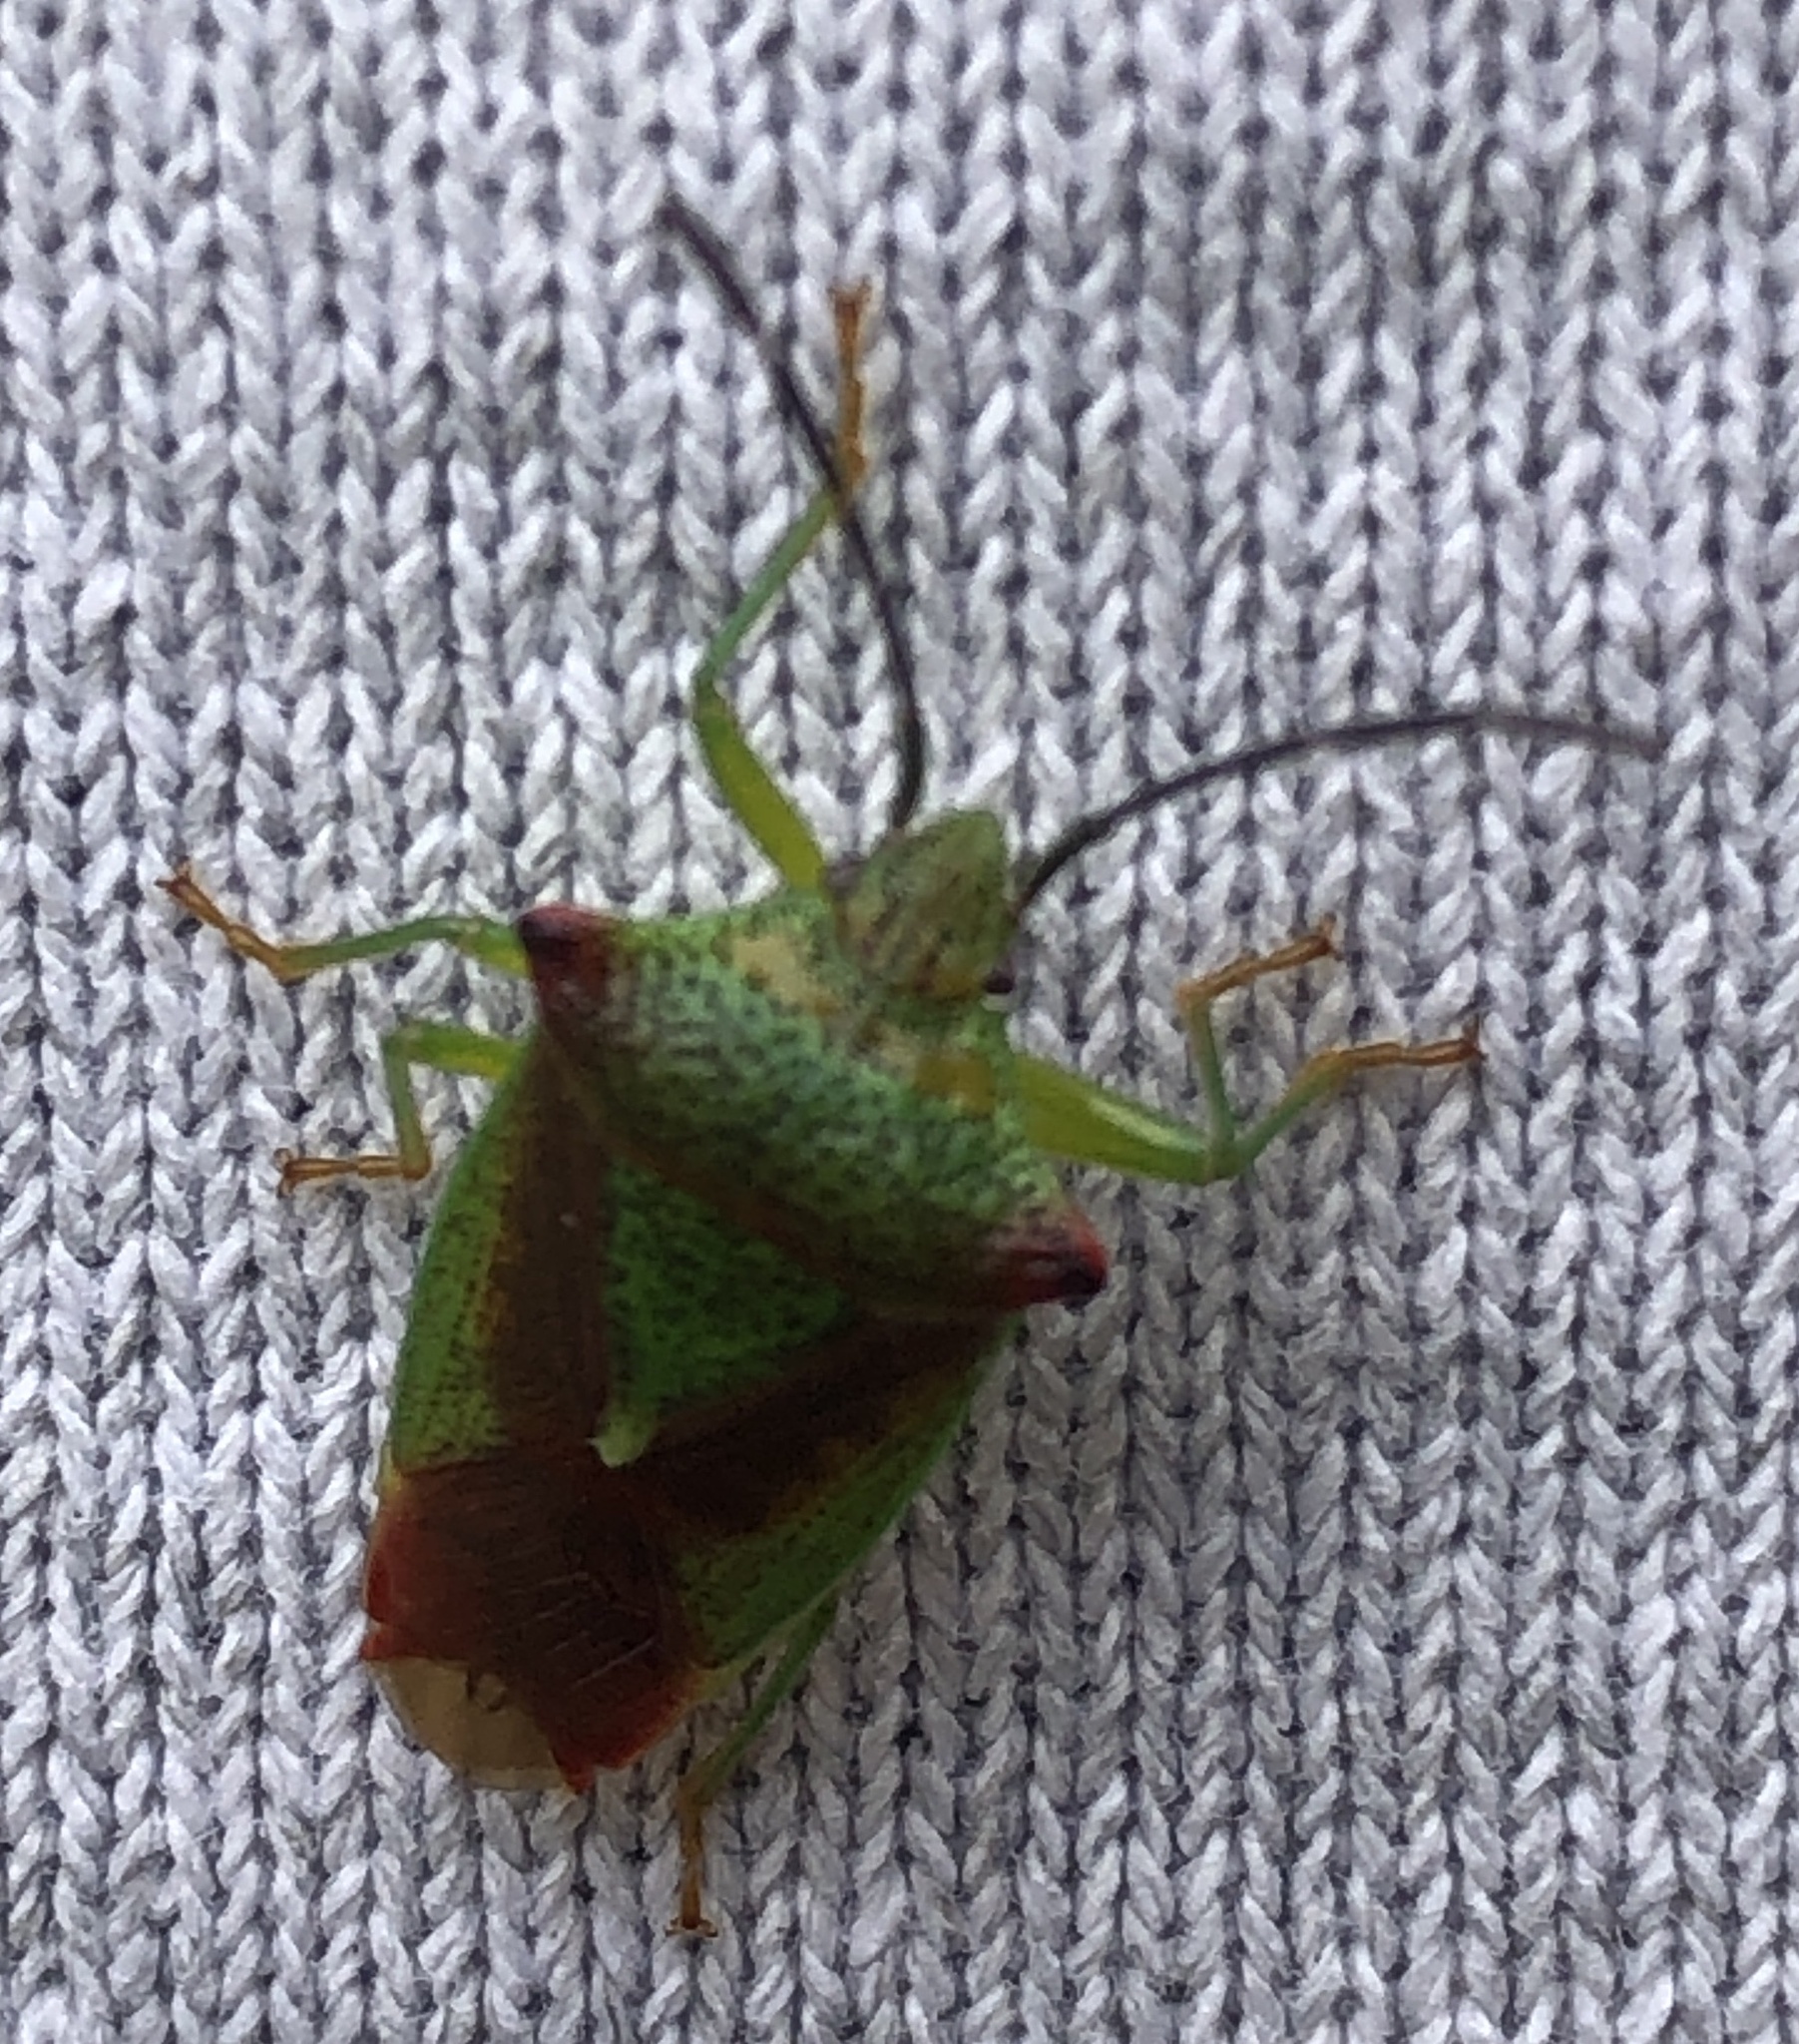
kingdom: Animalia
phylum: Arthropoda
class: Insecta
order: Hemiptera
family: Acanthosomatidae
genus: Acanthosoma
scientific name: Acanthosoma haemorrhoidale
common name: Hawthorn shieldbug
